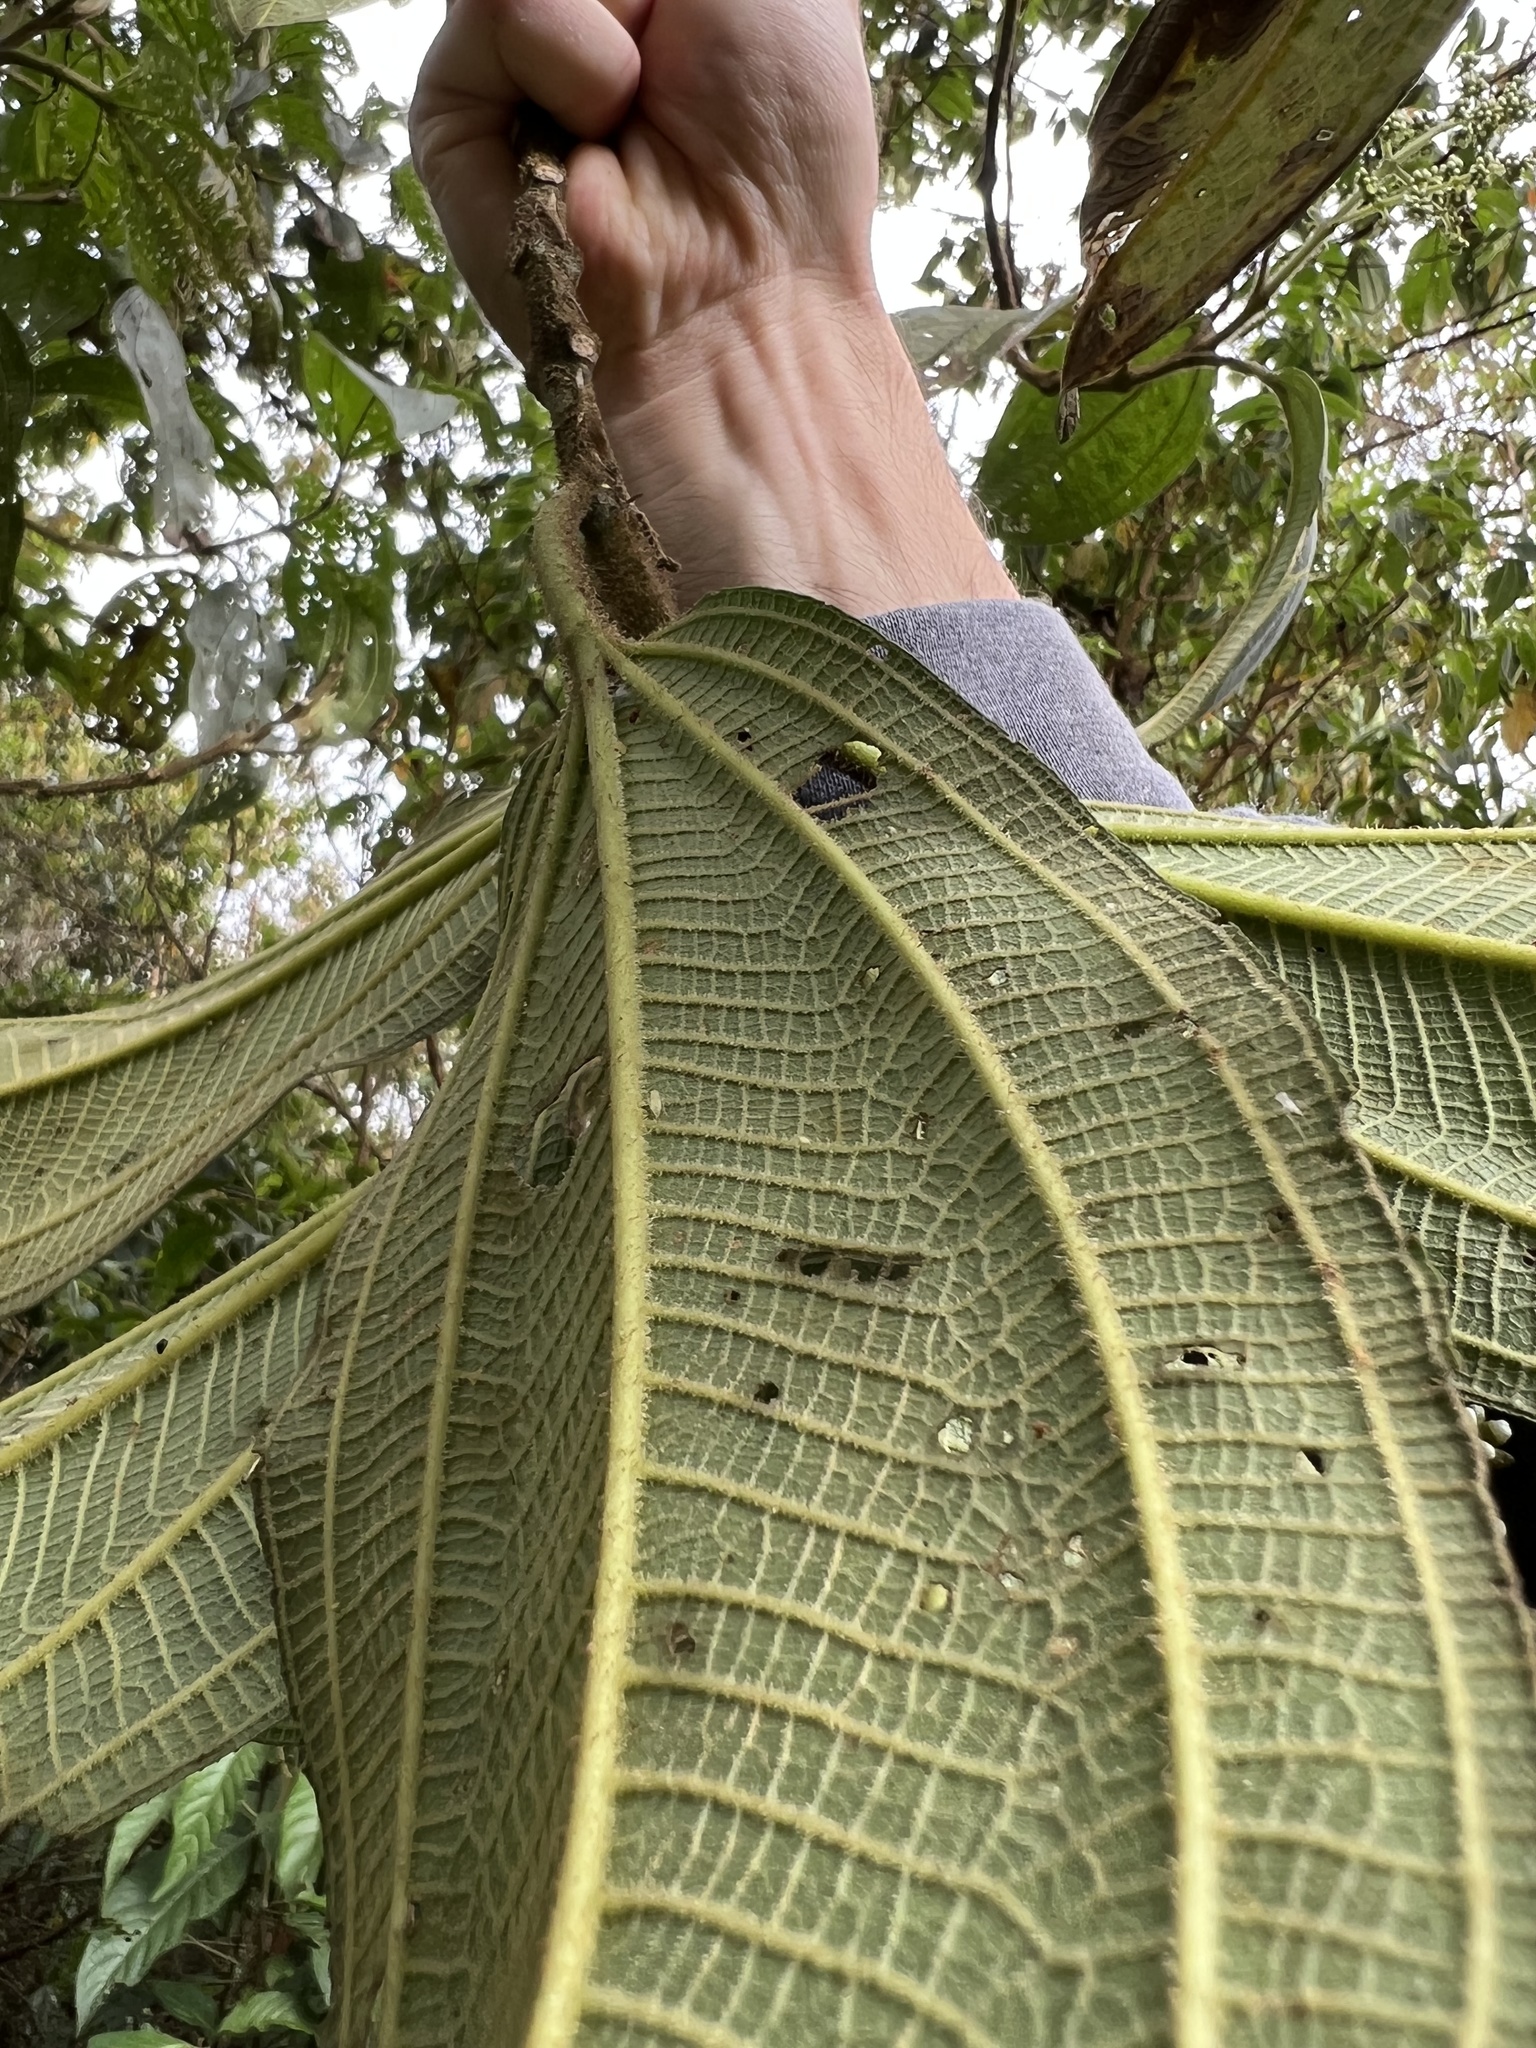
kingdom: Plantae
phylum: Tracheophyta
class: Magnoliopsida
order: Myrtales
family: Melastomataceae
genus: Miconia
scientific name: Miconia plethorica
